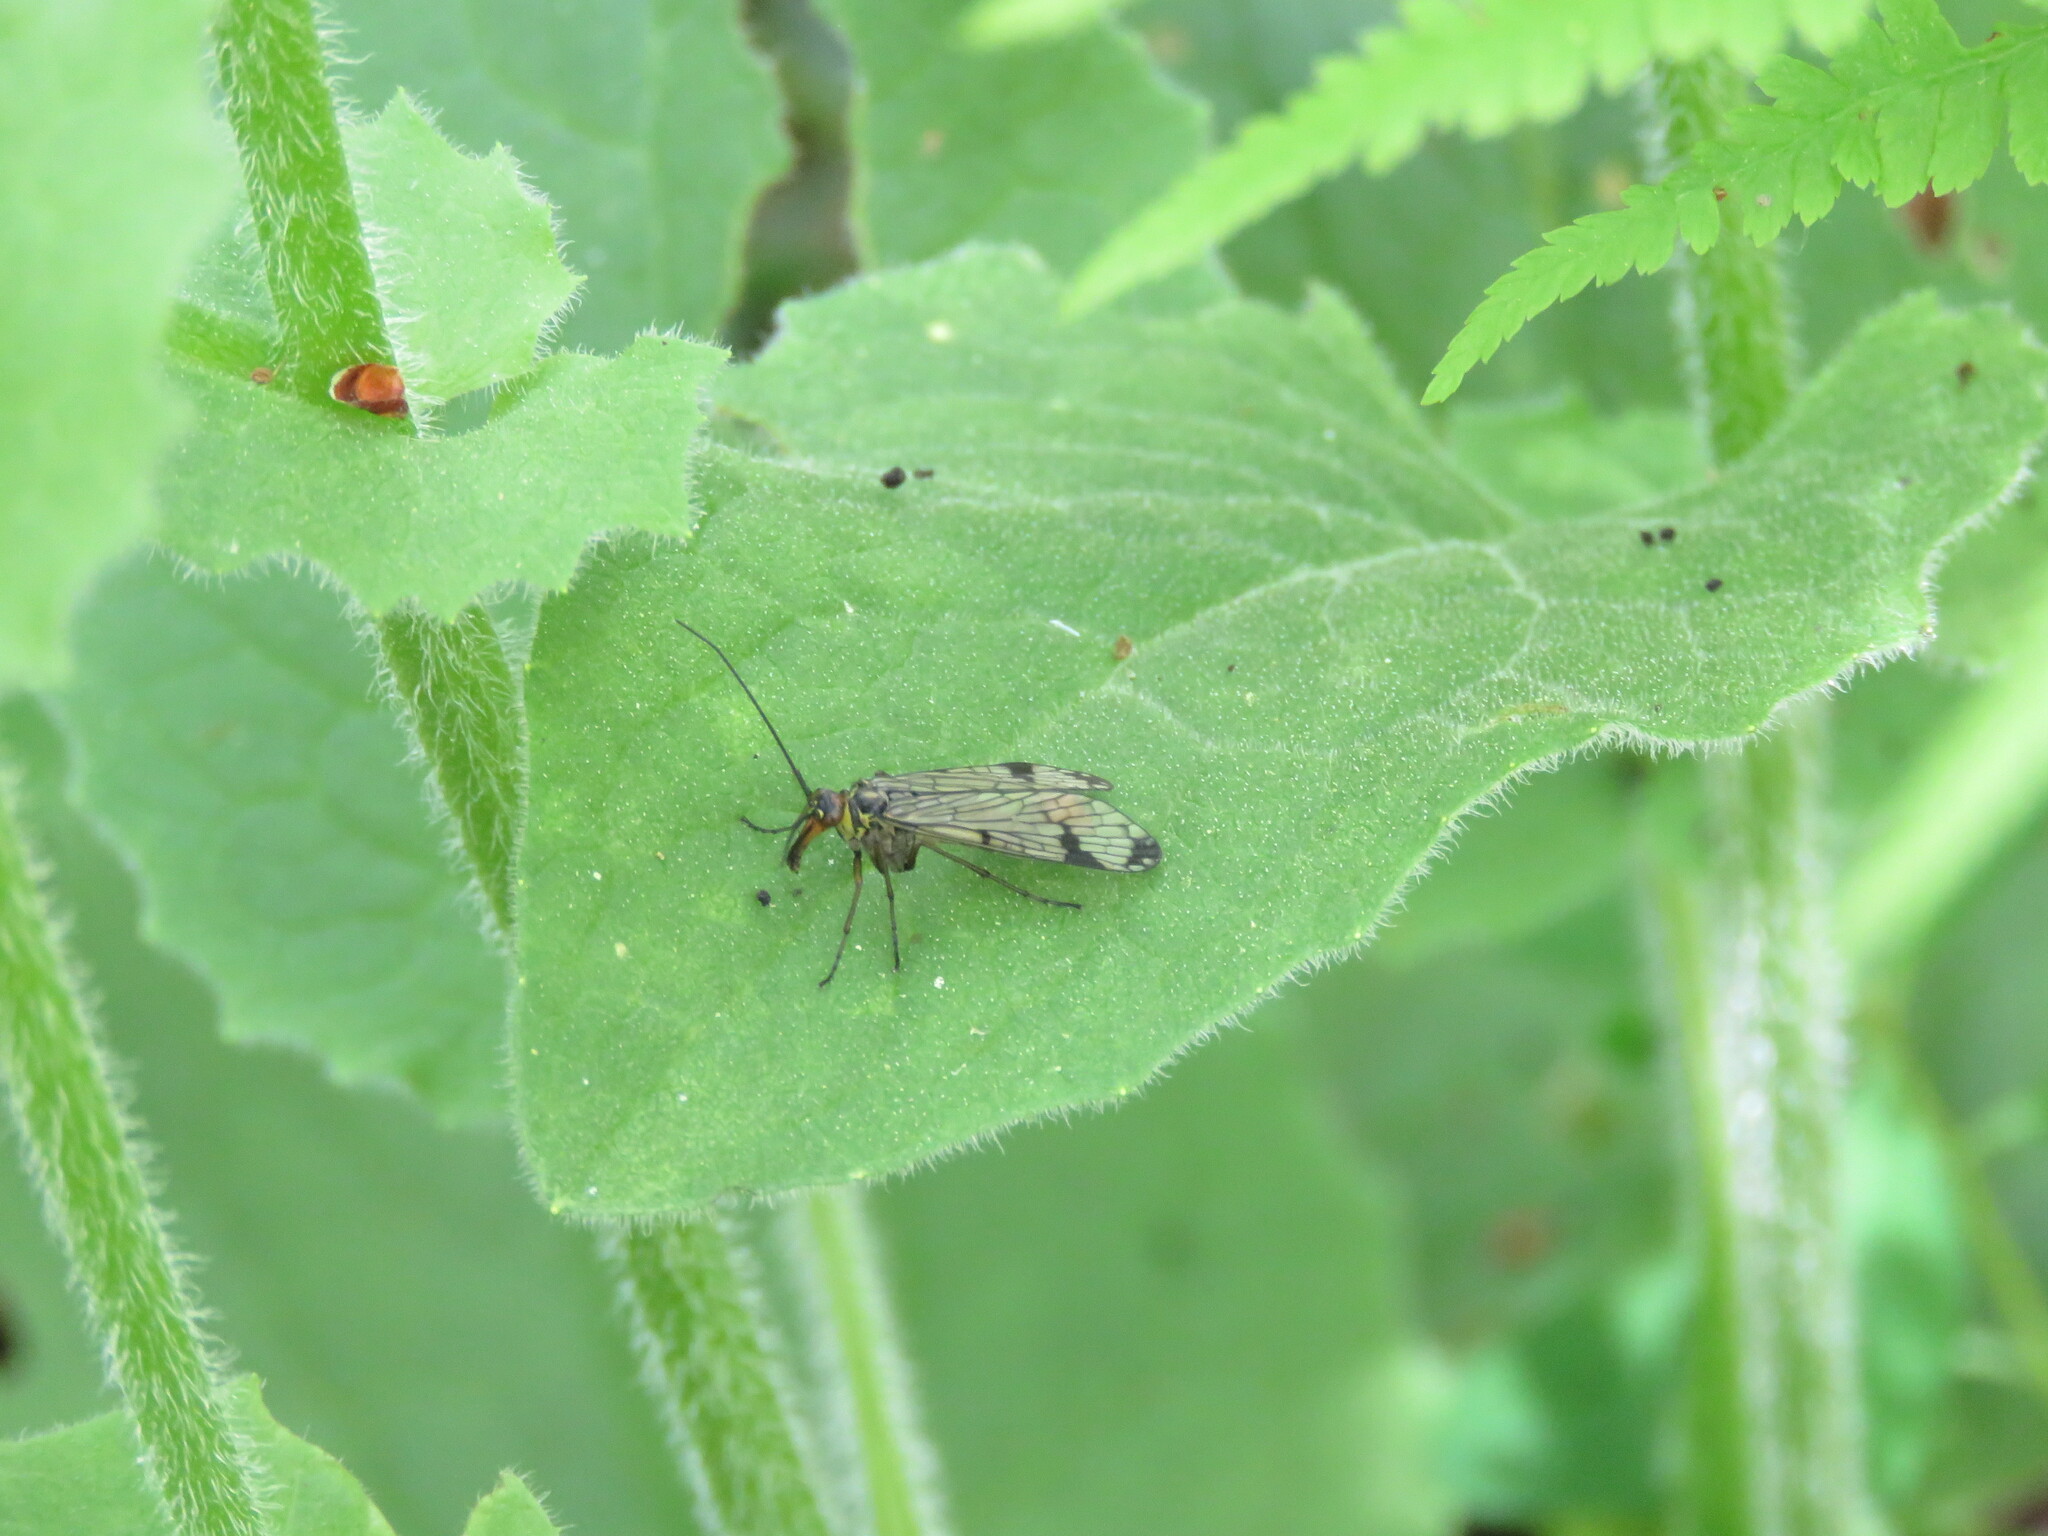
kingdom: Animalia
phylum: Arthropoda
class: Insecta
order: Mecoptera
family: Panorpidae
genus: Panorpa
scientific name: Panorpa meridionalis
